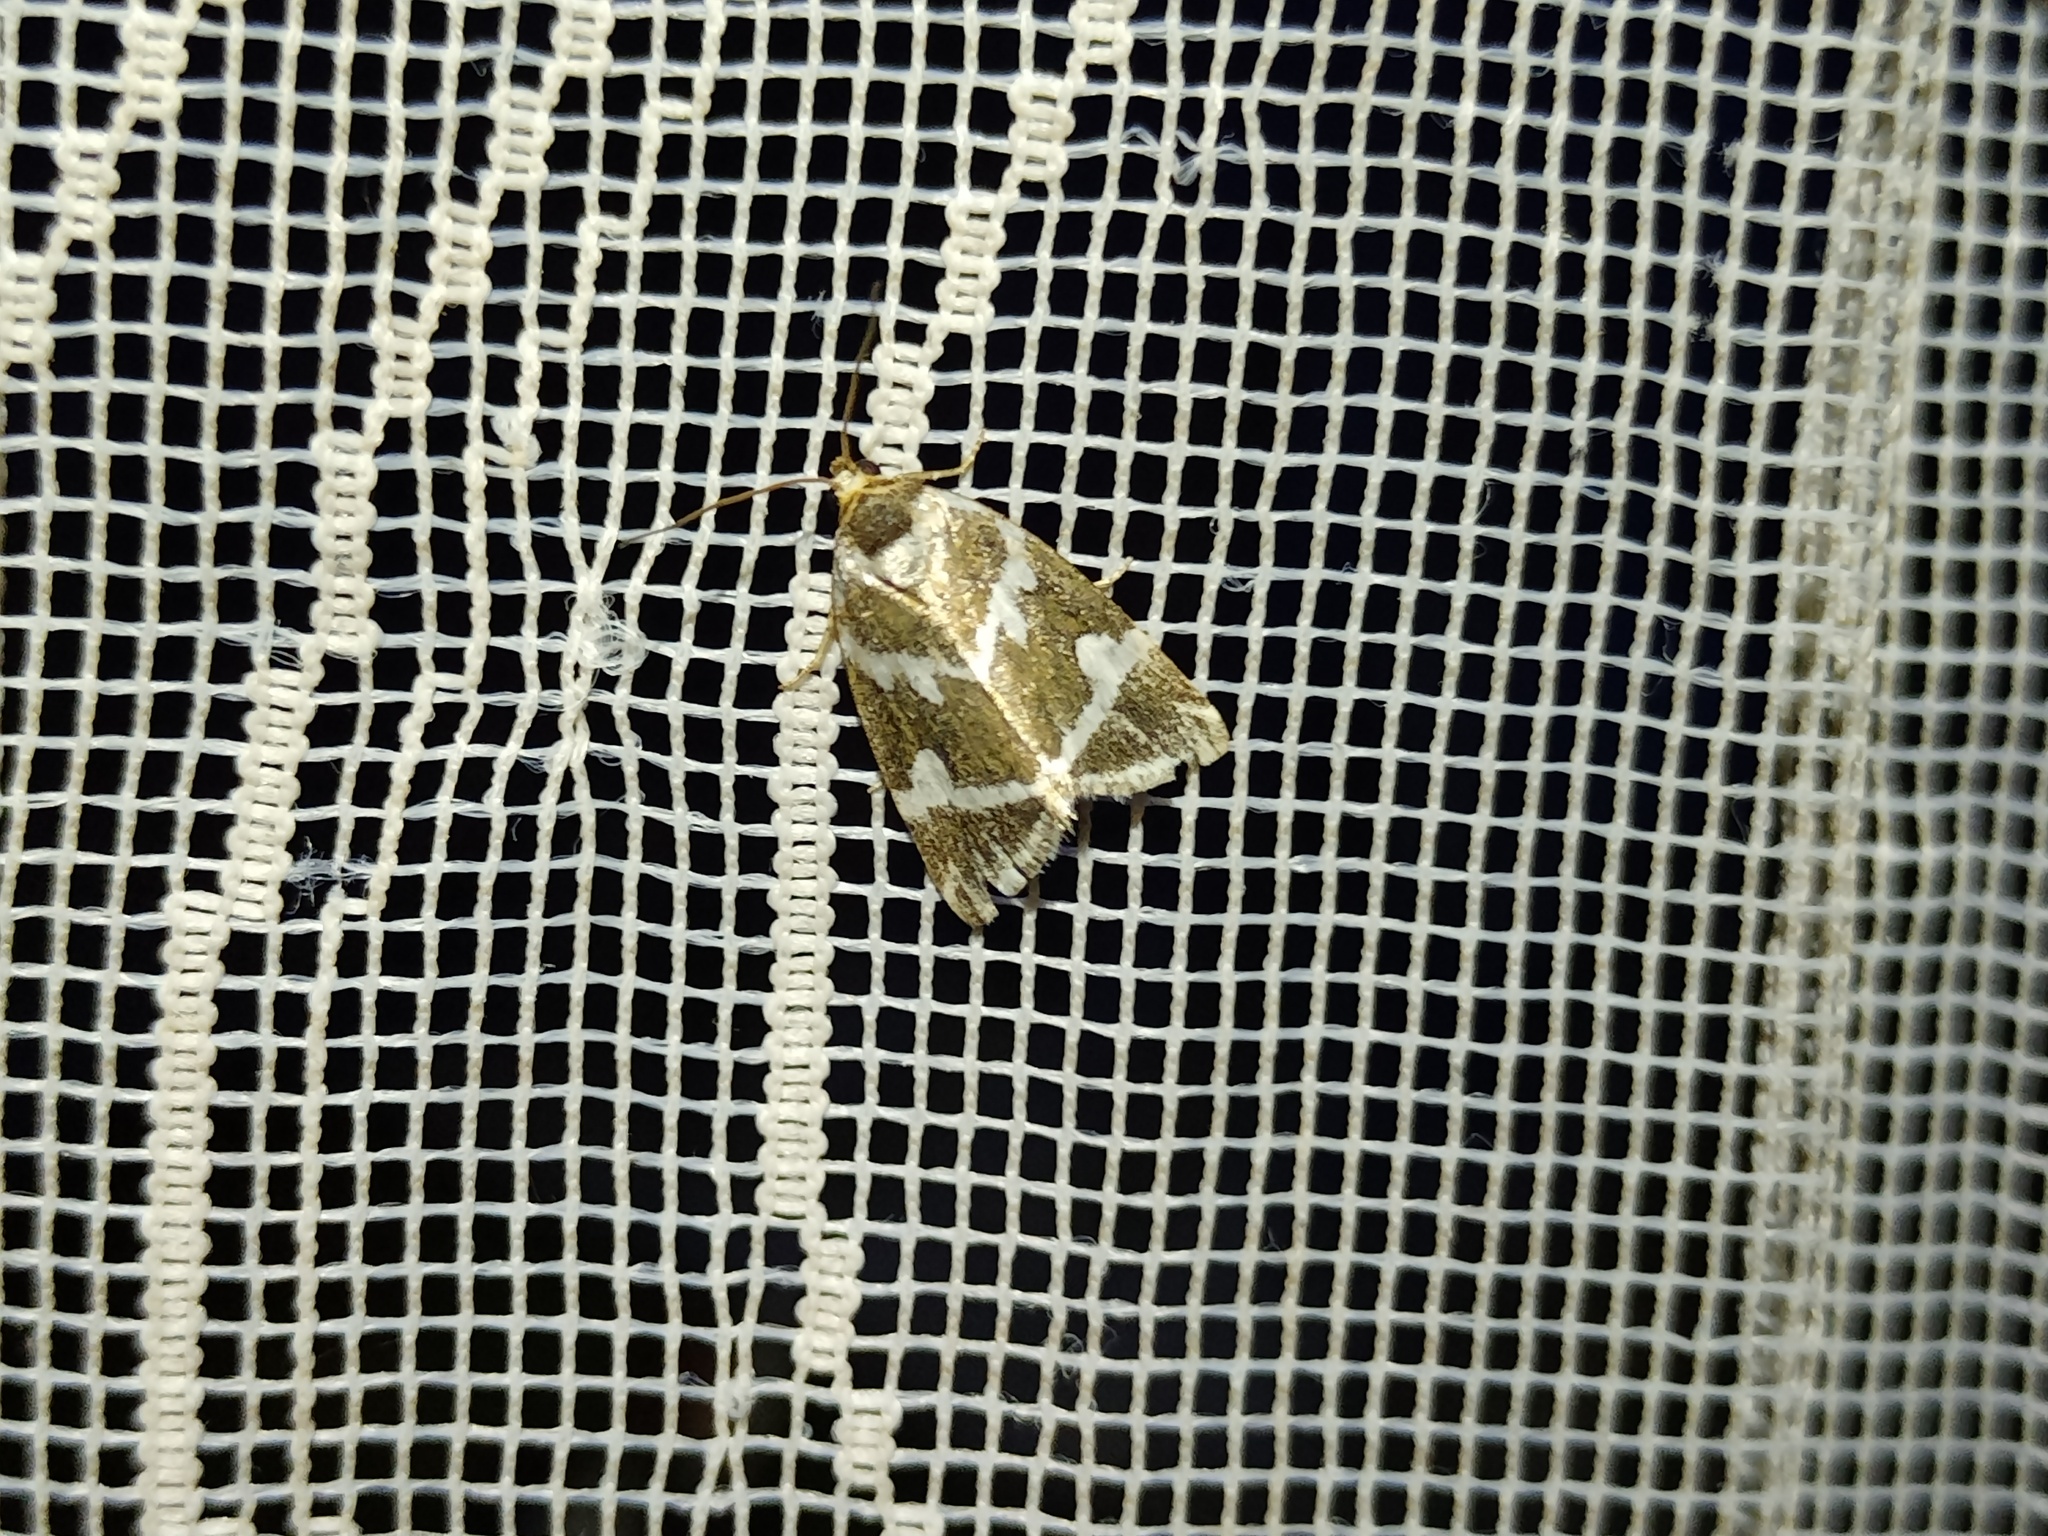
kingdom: Animalia
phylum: Arthropoda
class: Insecta
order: Lepidoptera
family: Noctuidae
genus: Deltote
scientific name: Deltote bankiana
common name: Silver barred
